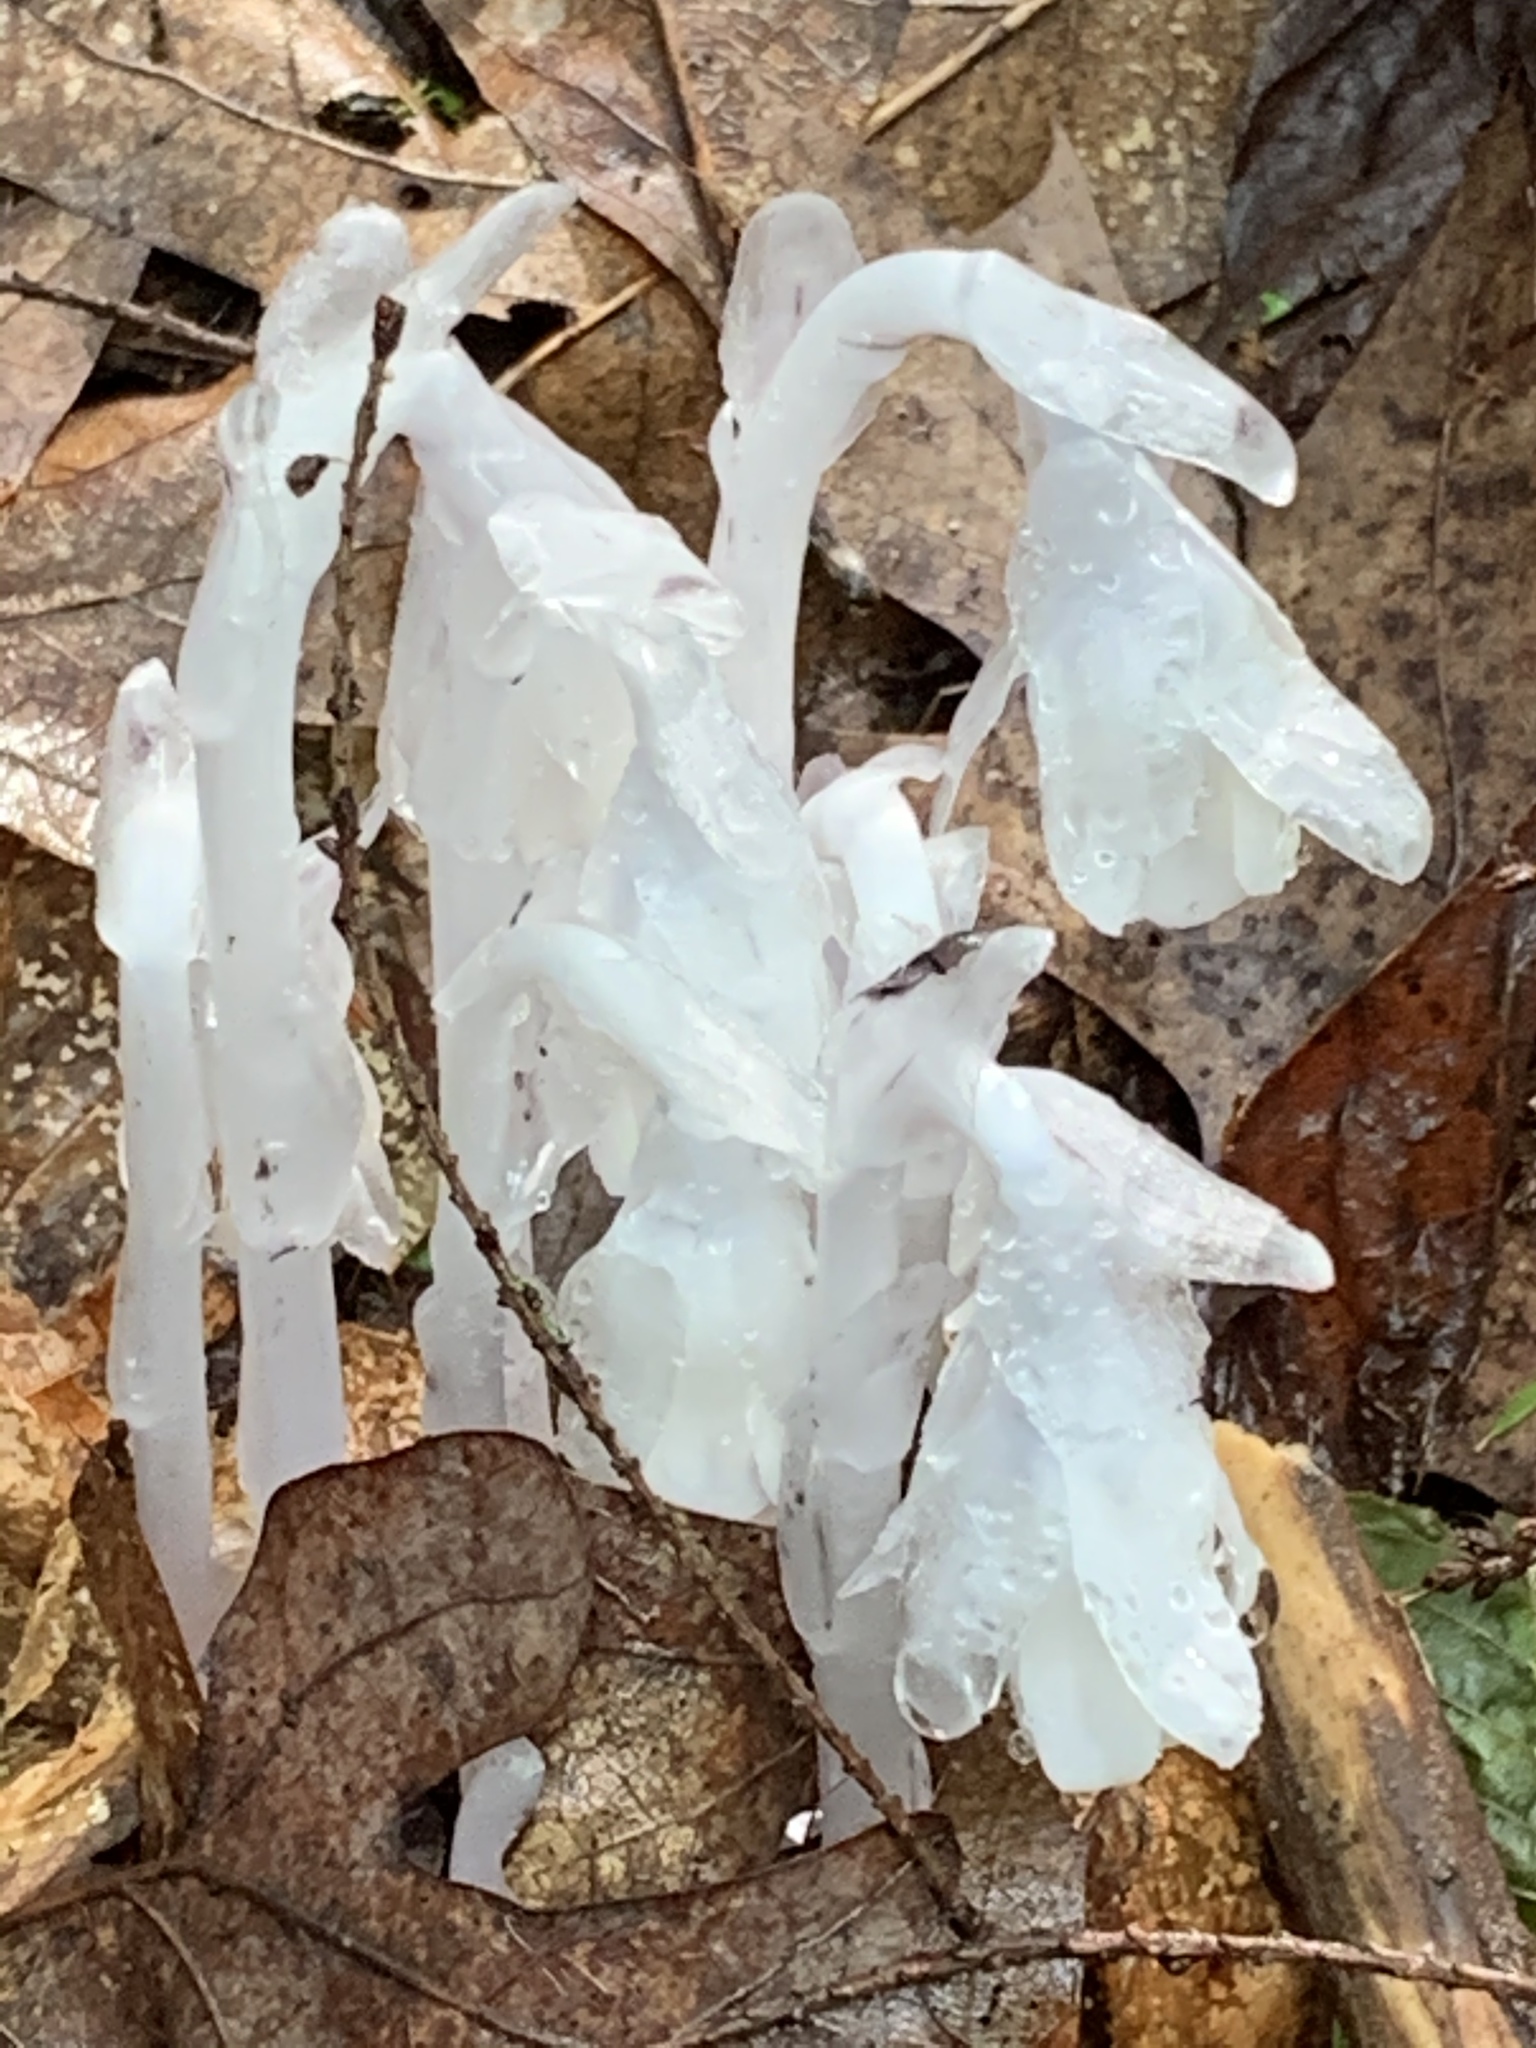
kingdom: Plantae
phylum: Tracheophyta
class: Magnoliopsida
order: Ericales
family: Ericaceae
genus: Monotropa
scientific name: Monotropa uniflora
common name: Convulsion root
